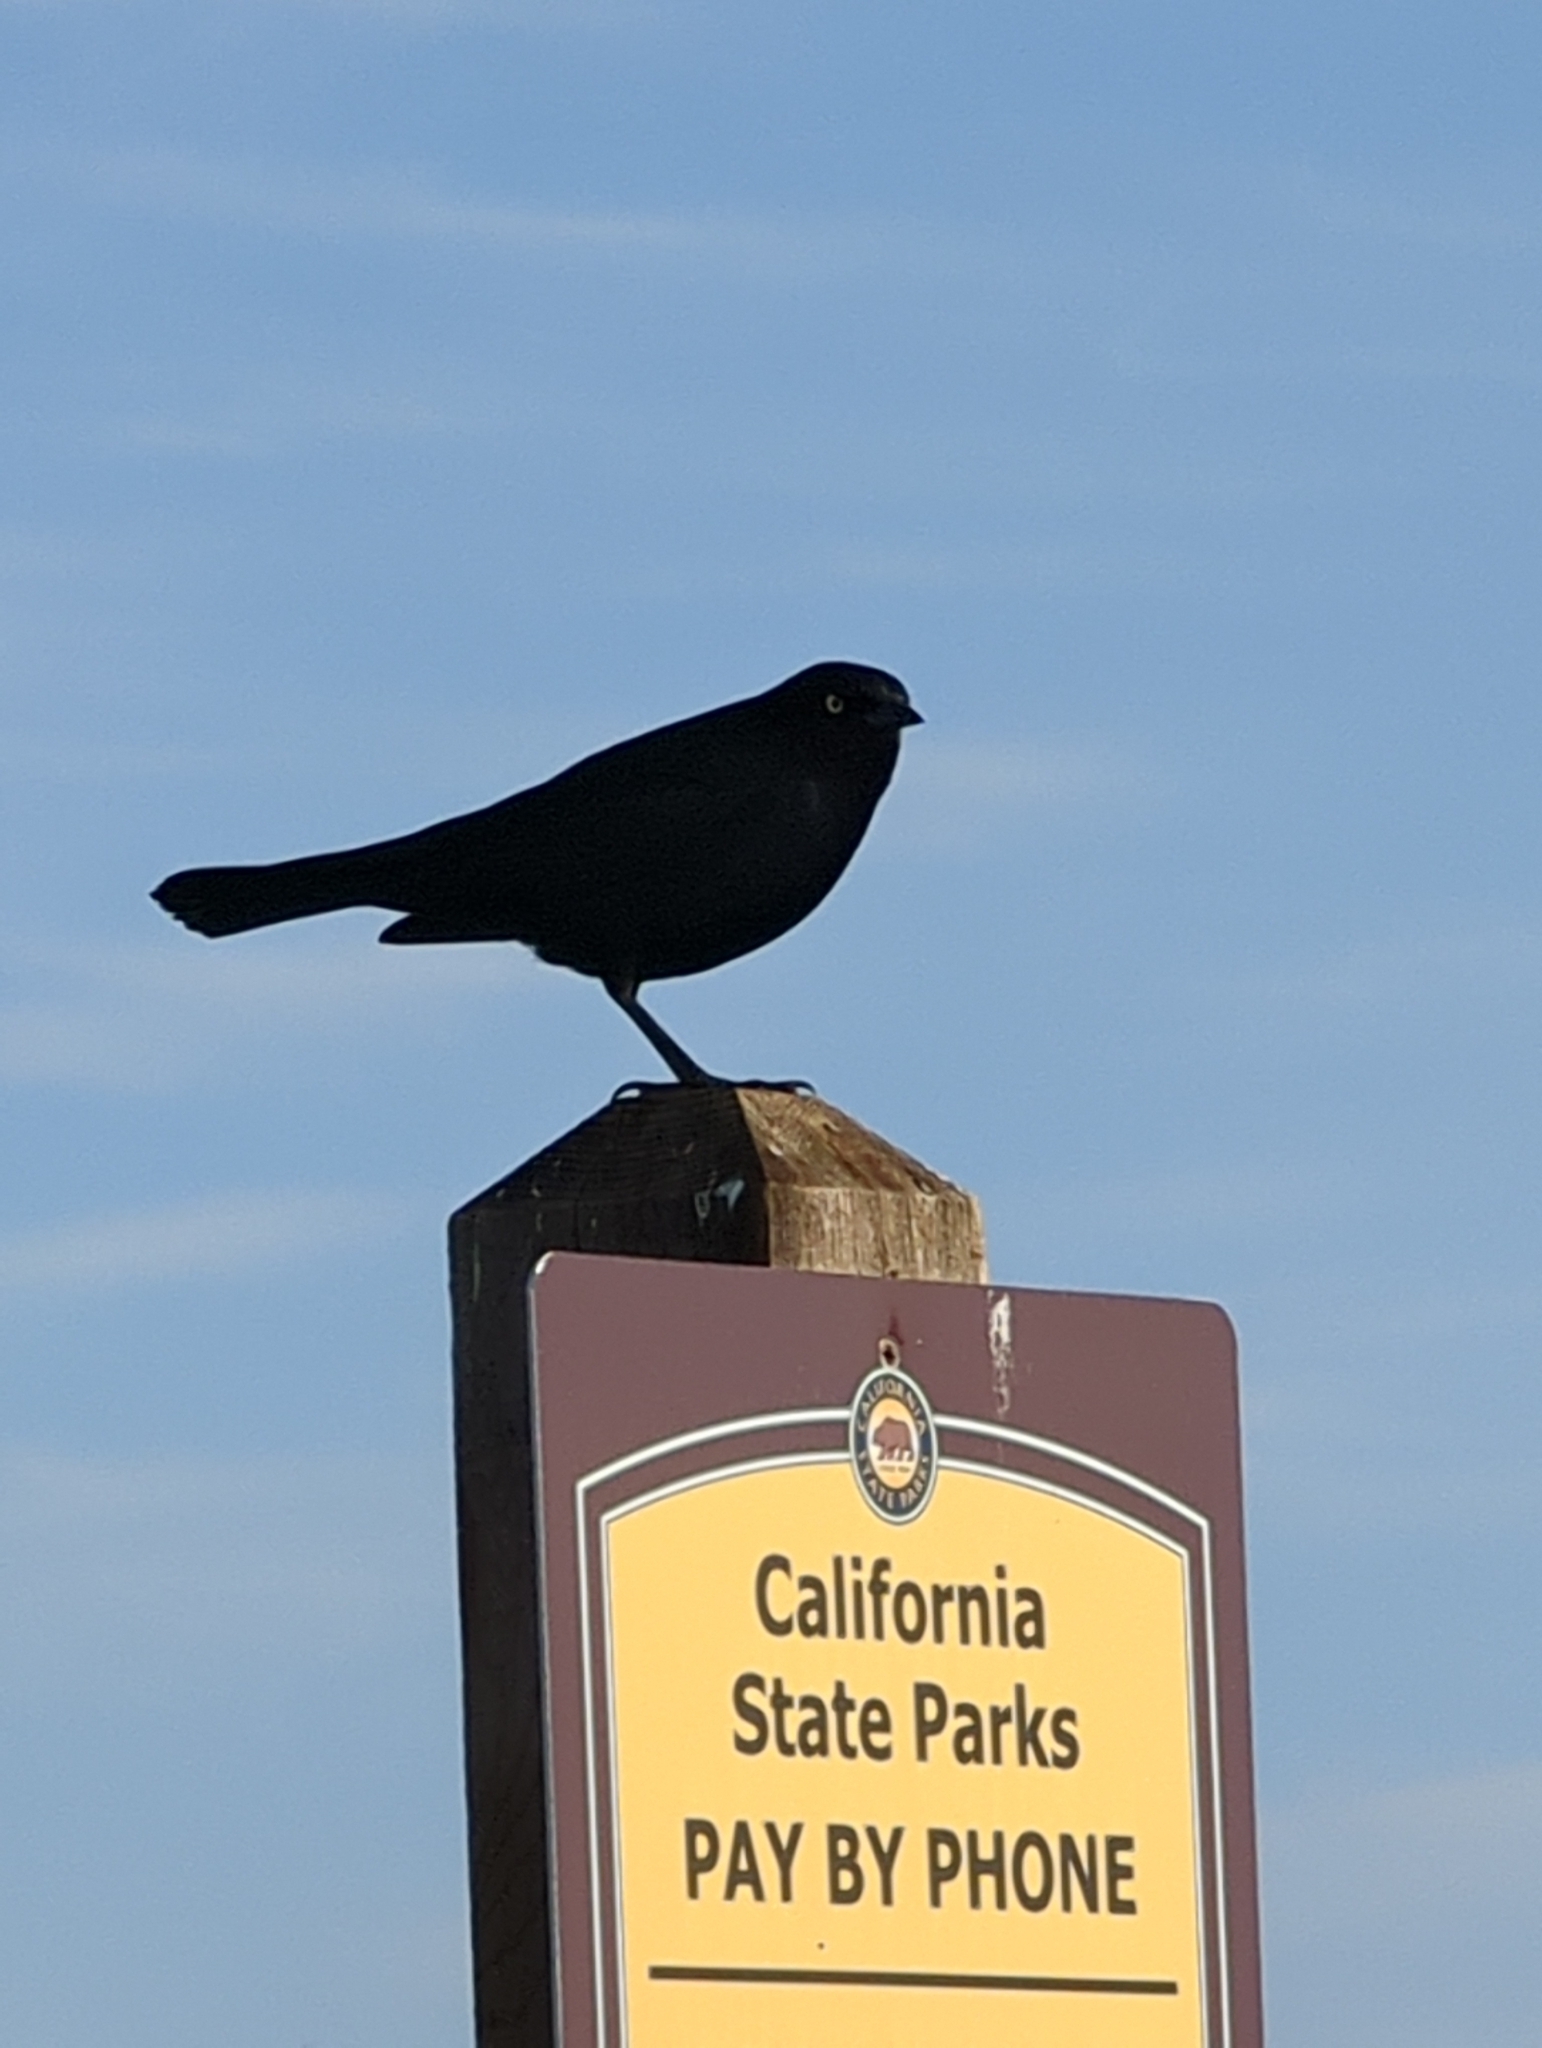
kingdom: Animalia
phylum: Chordata
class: Aves
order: Passeriformes
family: Icteridae
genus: Euphagus
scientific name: Euphagus cyanocephalus
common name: Brewer's blackbird
